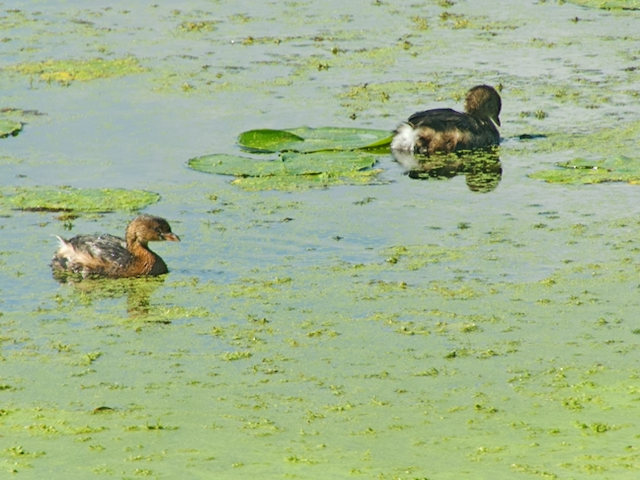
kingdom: Animalia
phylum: Chordata
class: Aves
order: Podicipediformes
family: Podicipedidae
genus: Podilymbus
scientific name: Podilymbus podiceps
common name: Pied-billed grebe
